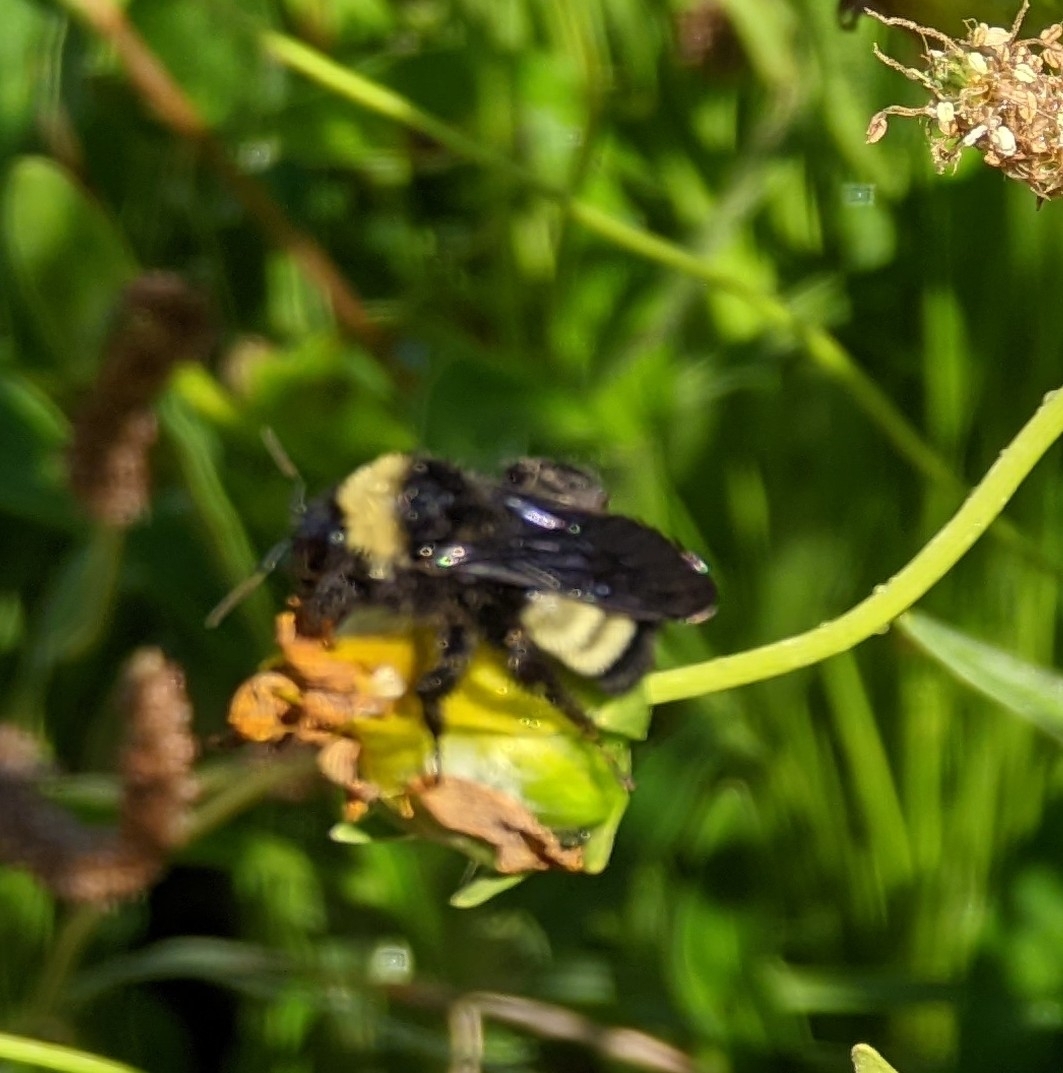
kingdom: Animalia
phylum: Arthropoda
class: Insecta
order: Hymenoptera
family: Apidae
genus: Bombus
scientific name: Bombus pensylvanicus
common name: Bumble bee
